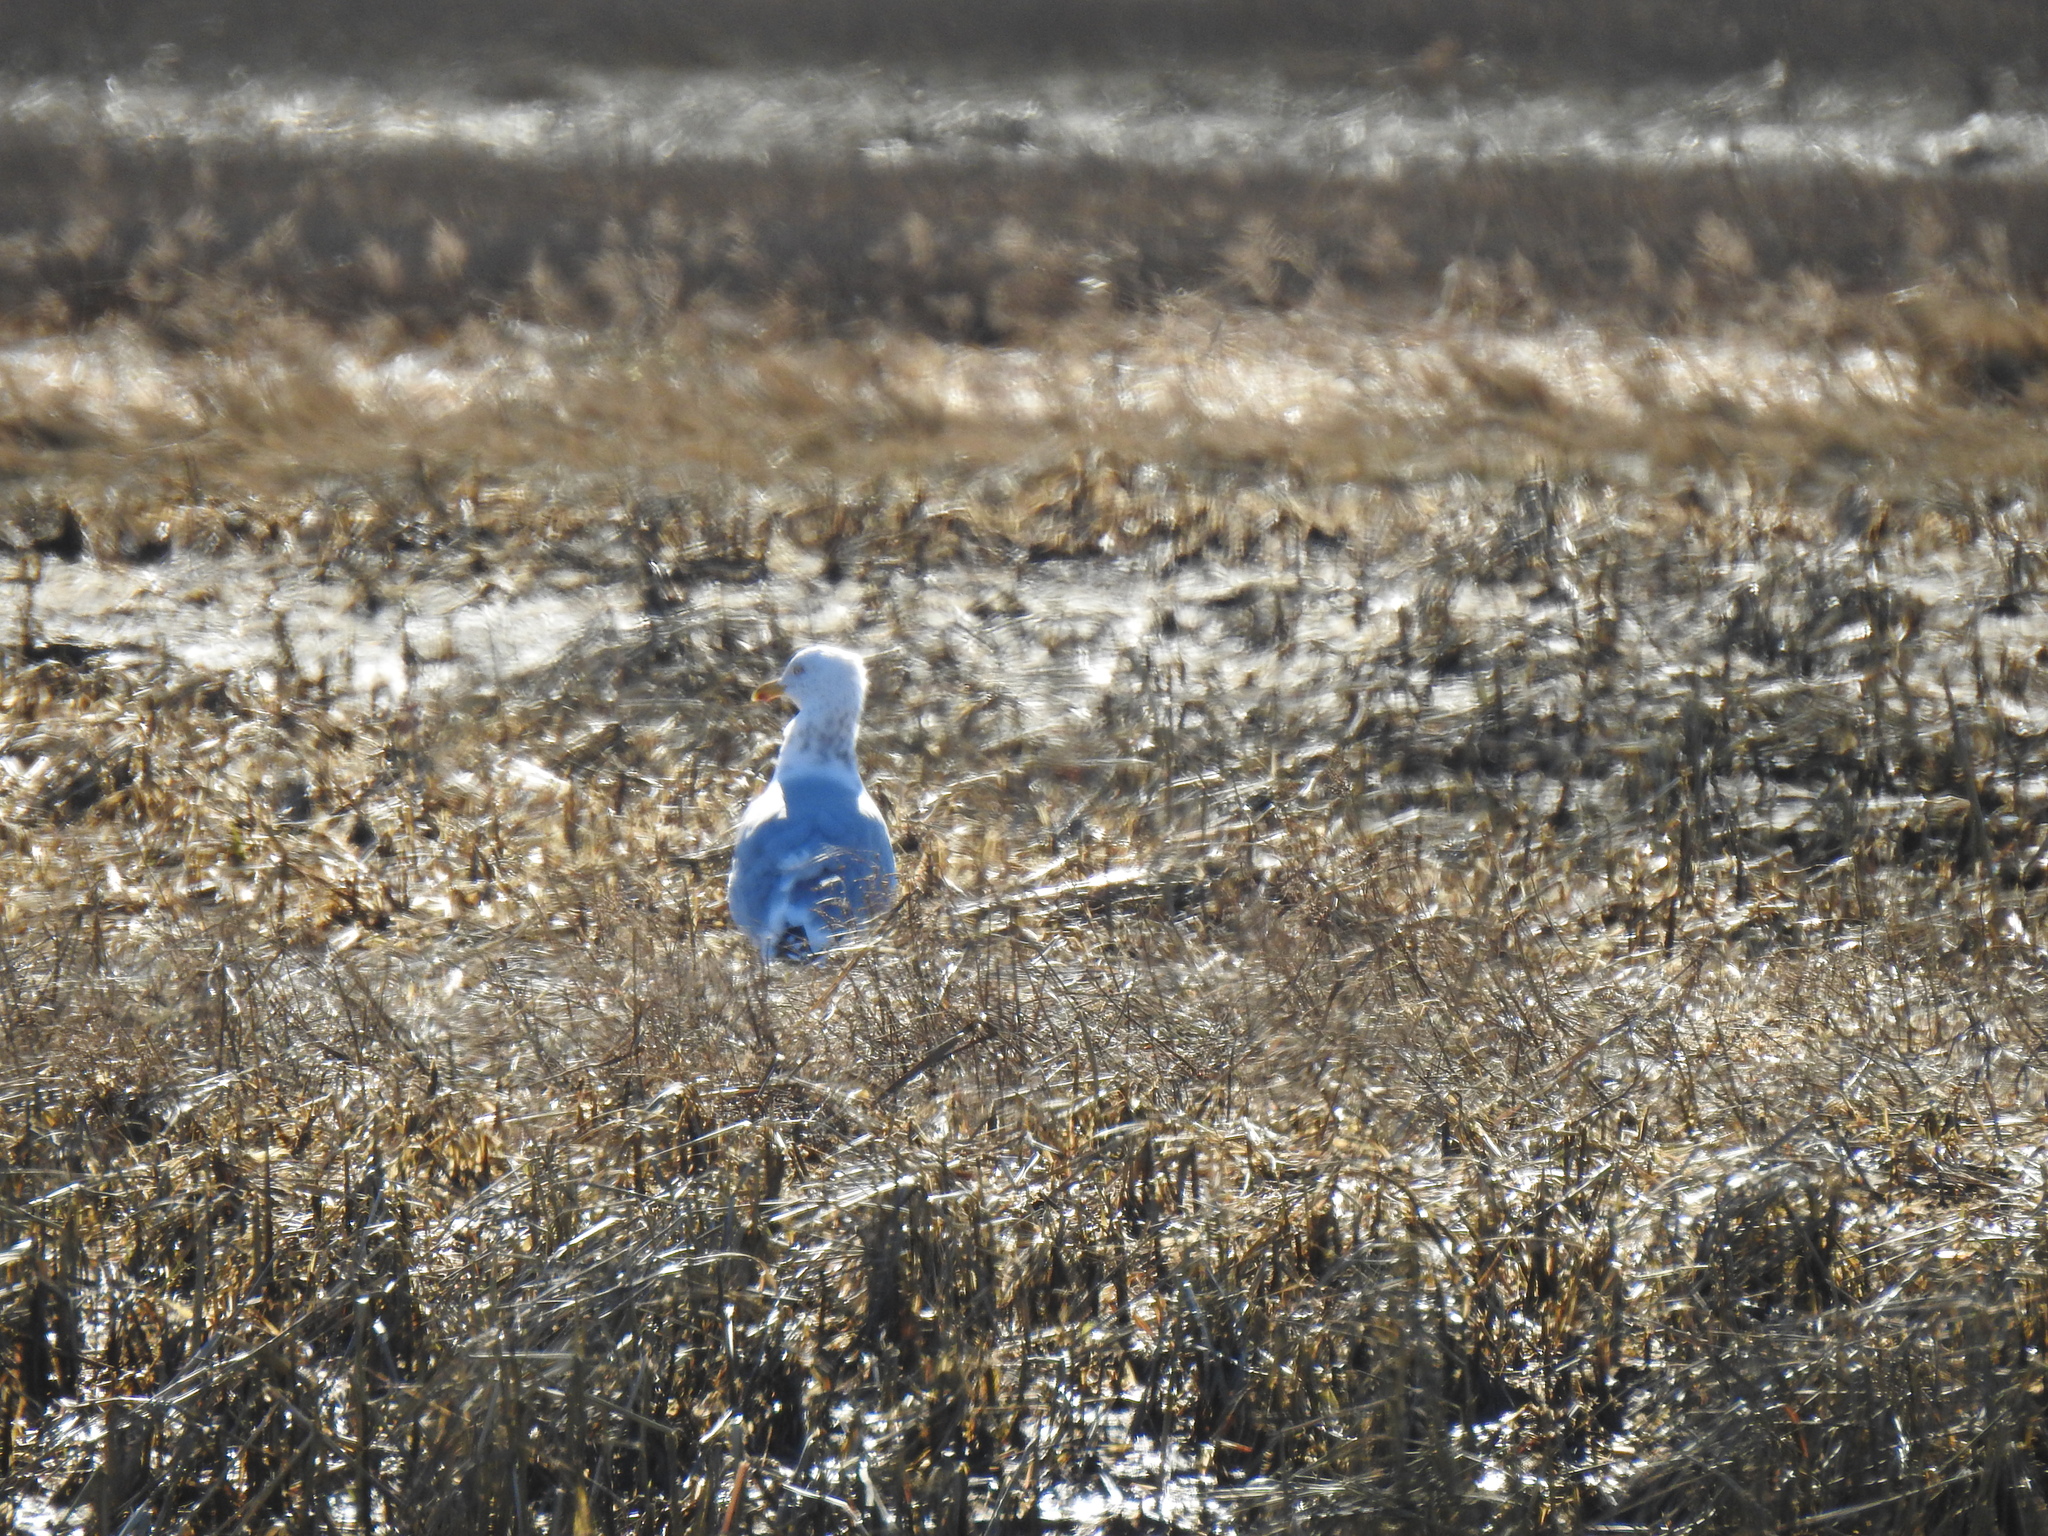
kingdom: Animalia
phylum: Chordata
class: Aves
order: Charadriiformes
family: Laridae
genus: Larus
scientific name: Larus argentatus
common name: Herring gull
